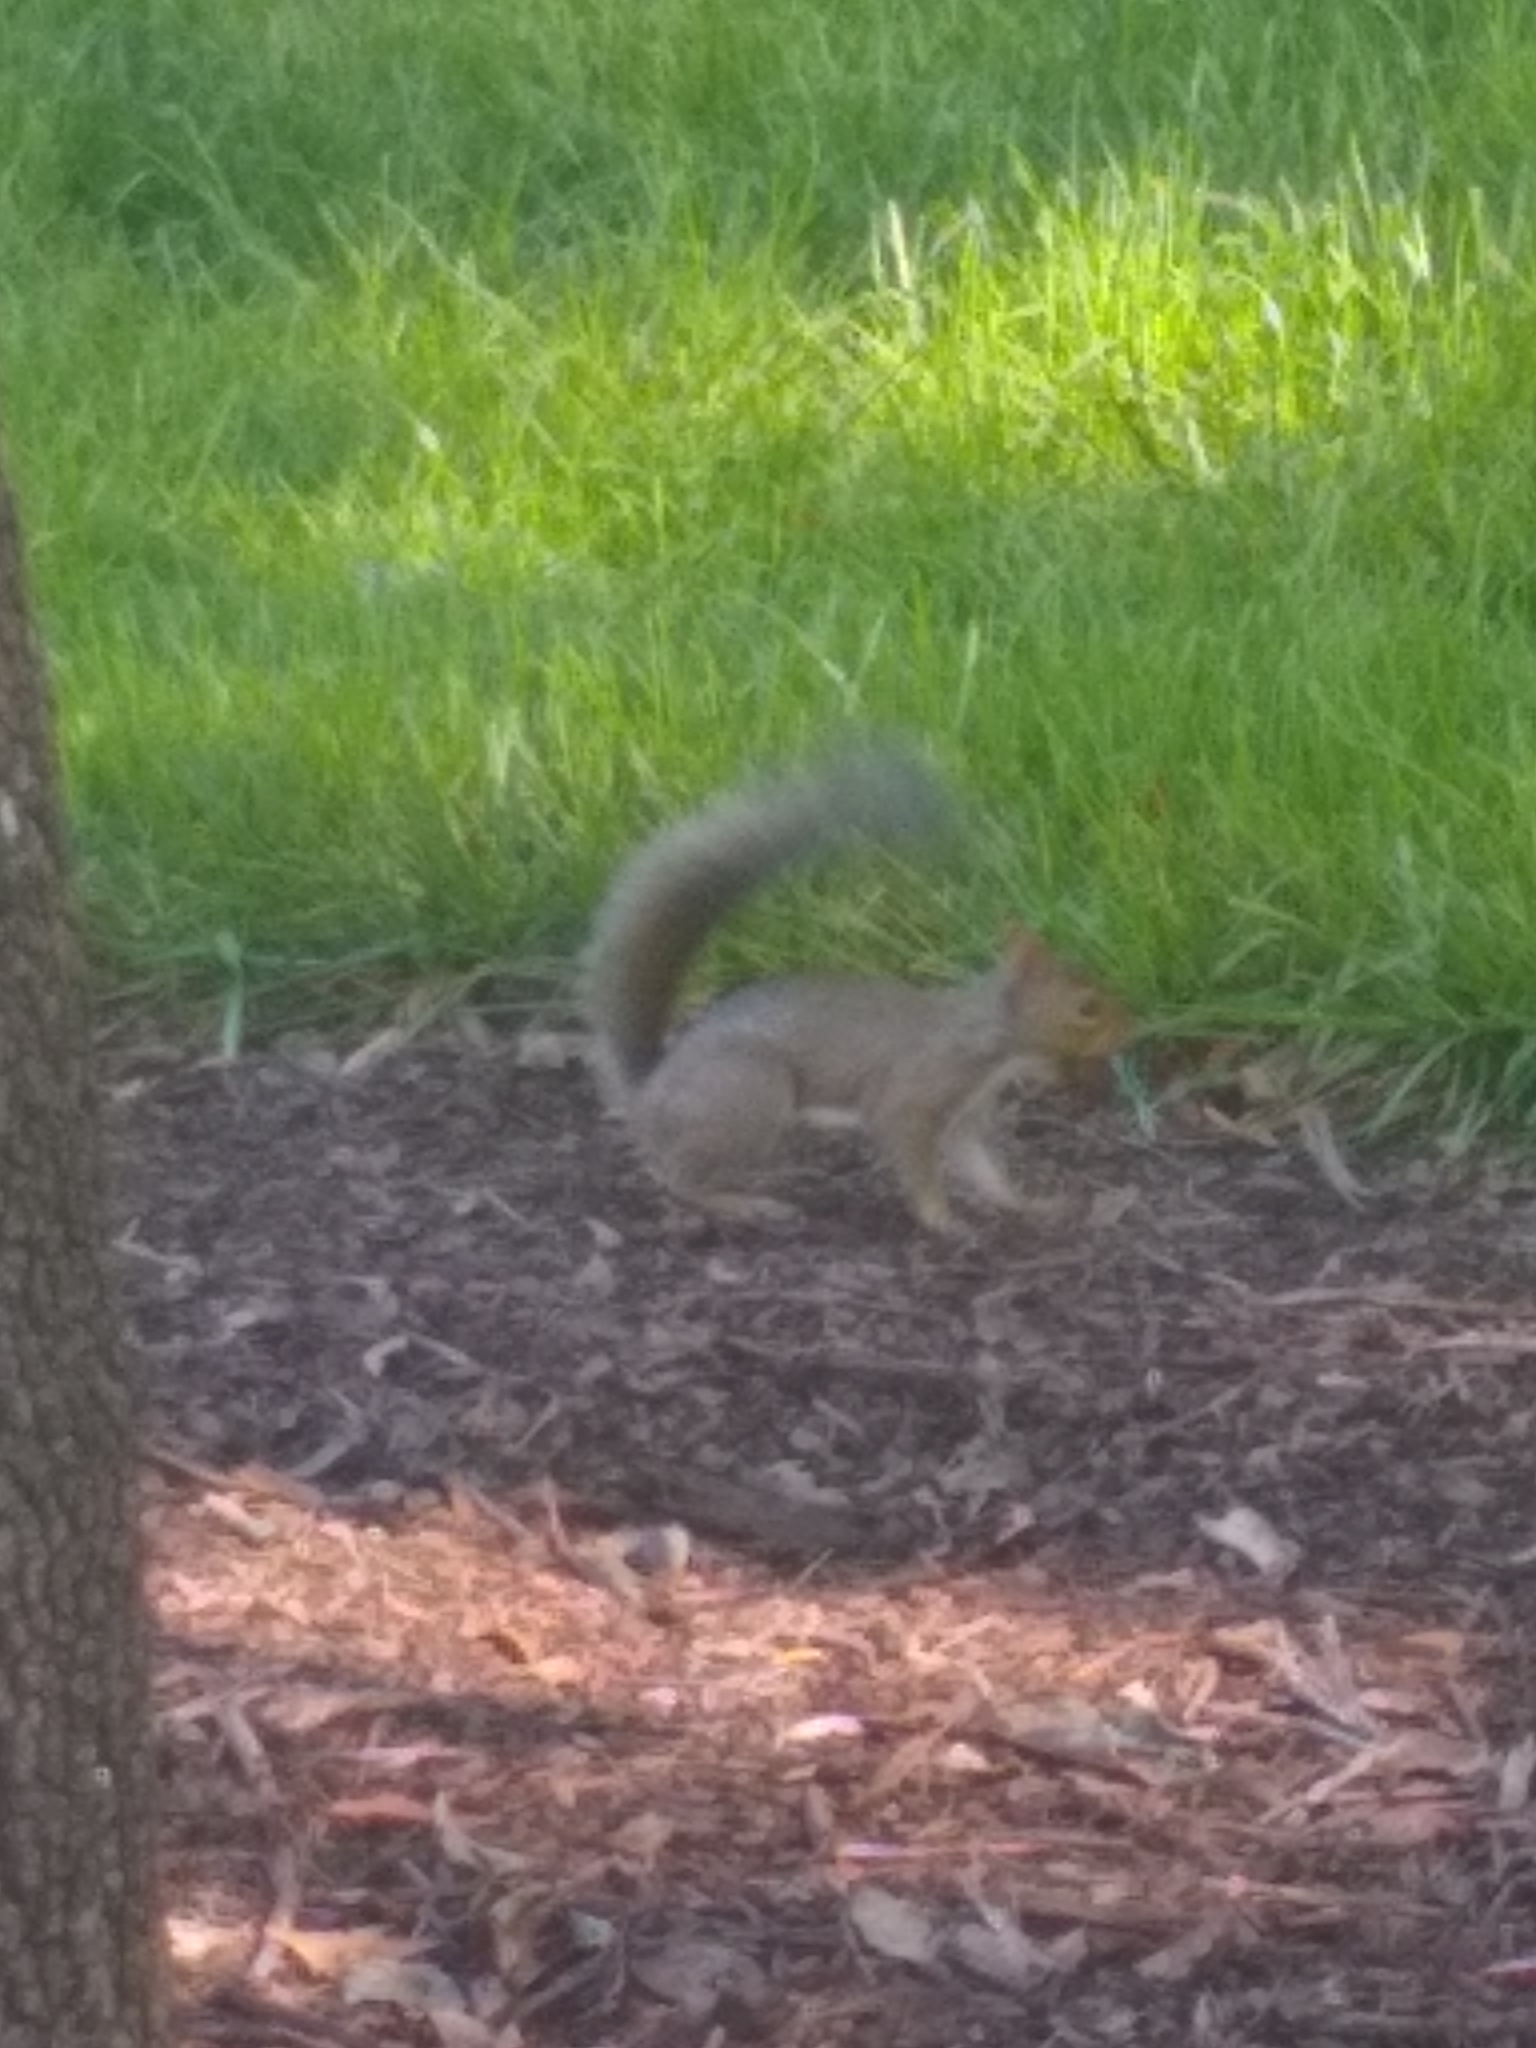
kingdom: Animalia
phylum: Chordata
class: Mammalia
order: Rodentia
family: Sciuridae
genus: Sciurus
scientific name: Sciurus carolinensis
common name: Eastern gray squirrel
